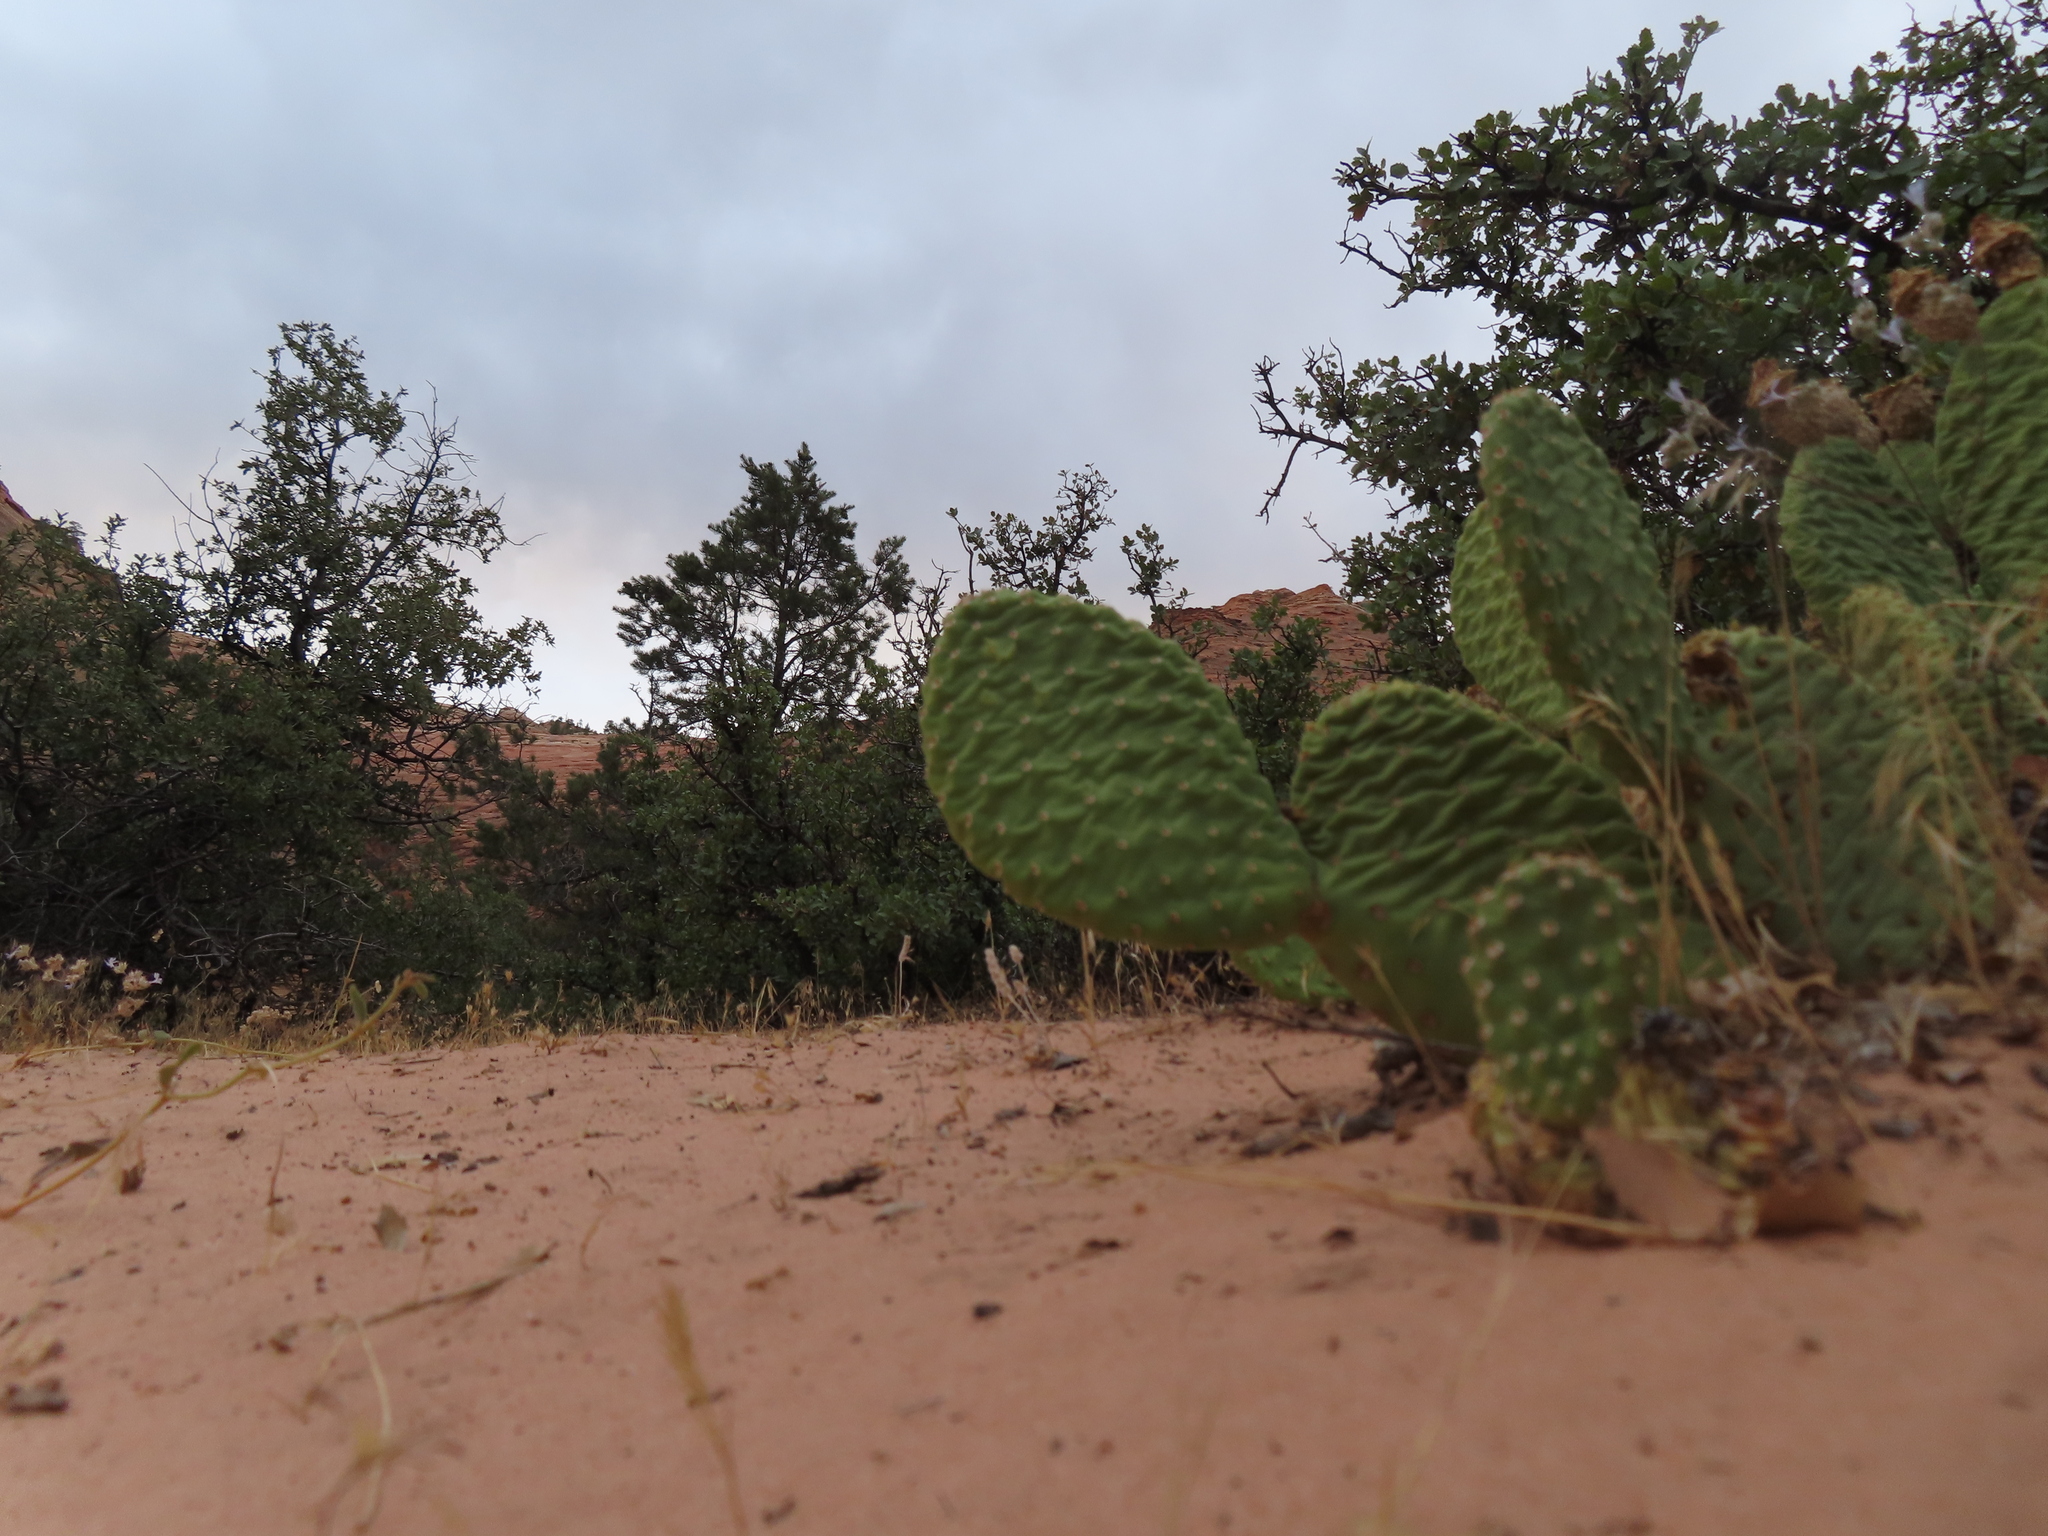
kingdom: Plantae
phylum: Tracheophyta
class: Magnoliopsida
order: Caryophyllales
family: Cactaceae
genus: Opuntia
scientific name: Opuntia aurea
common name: Golden prickly-pear
